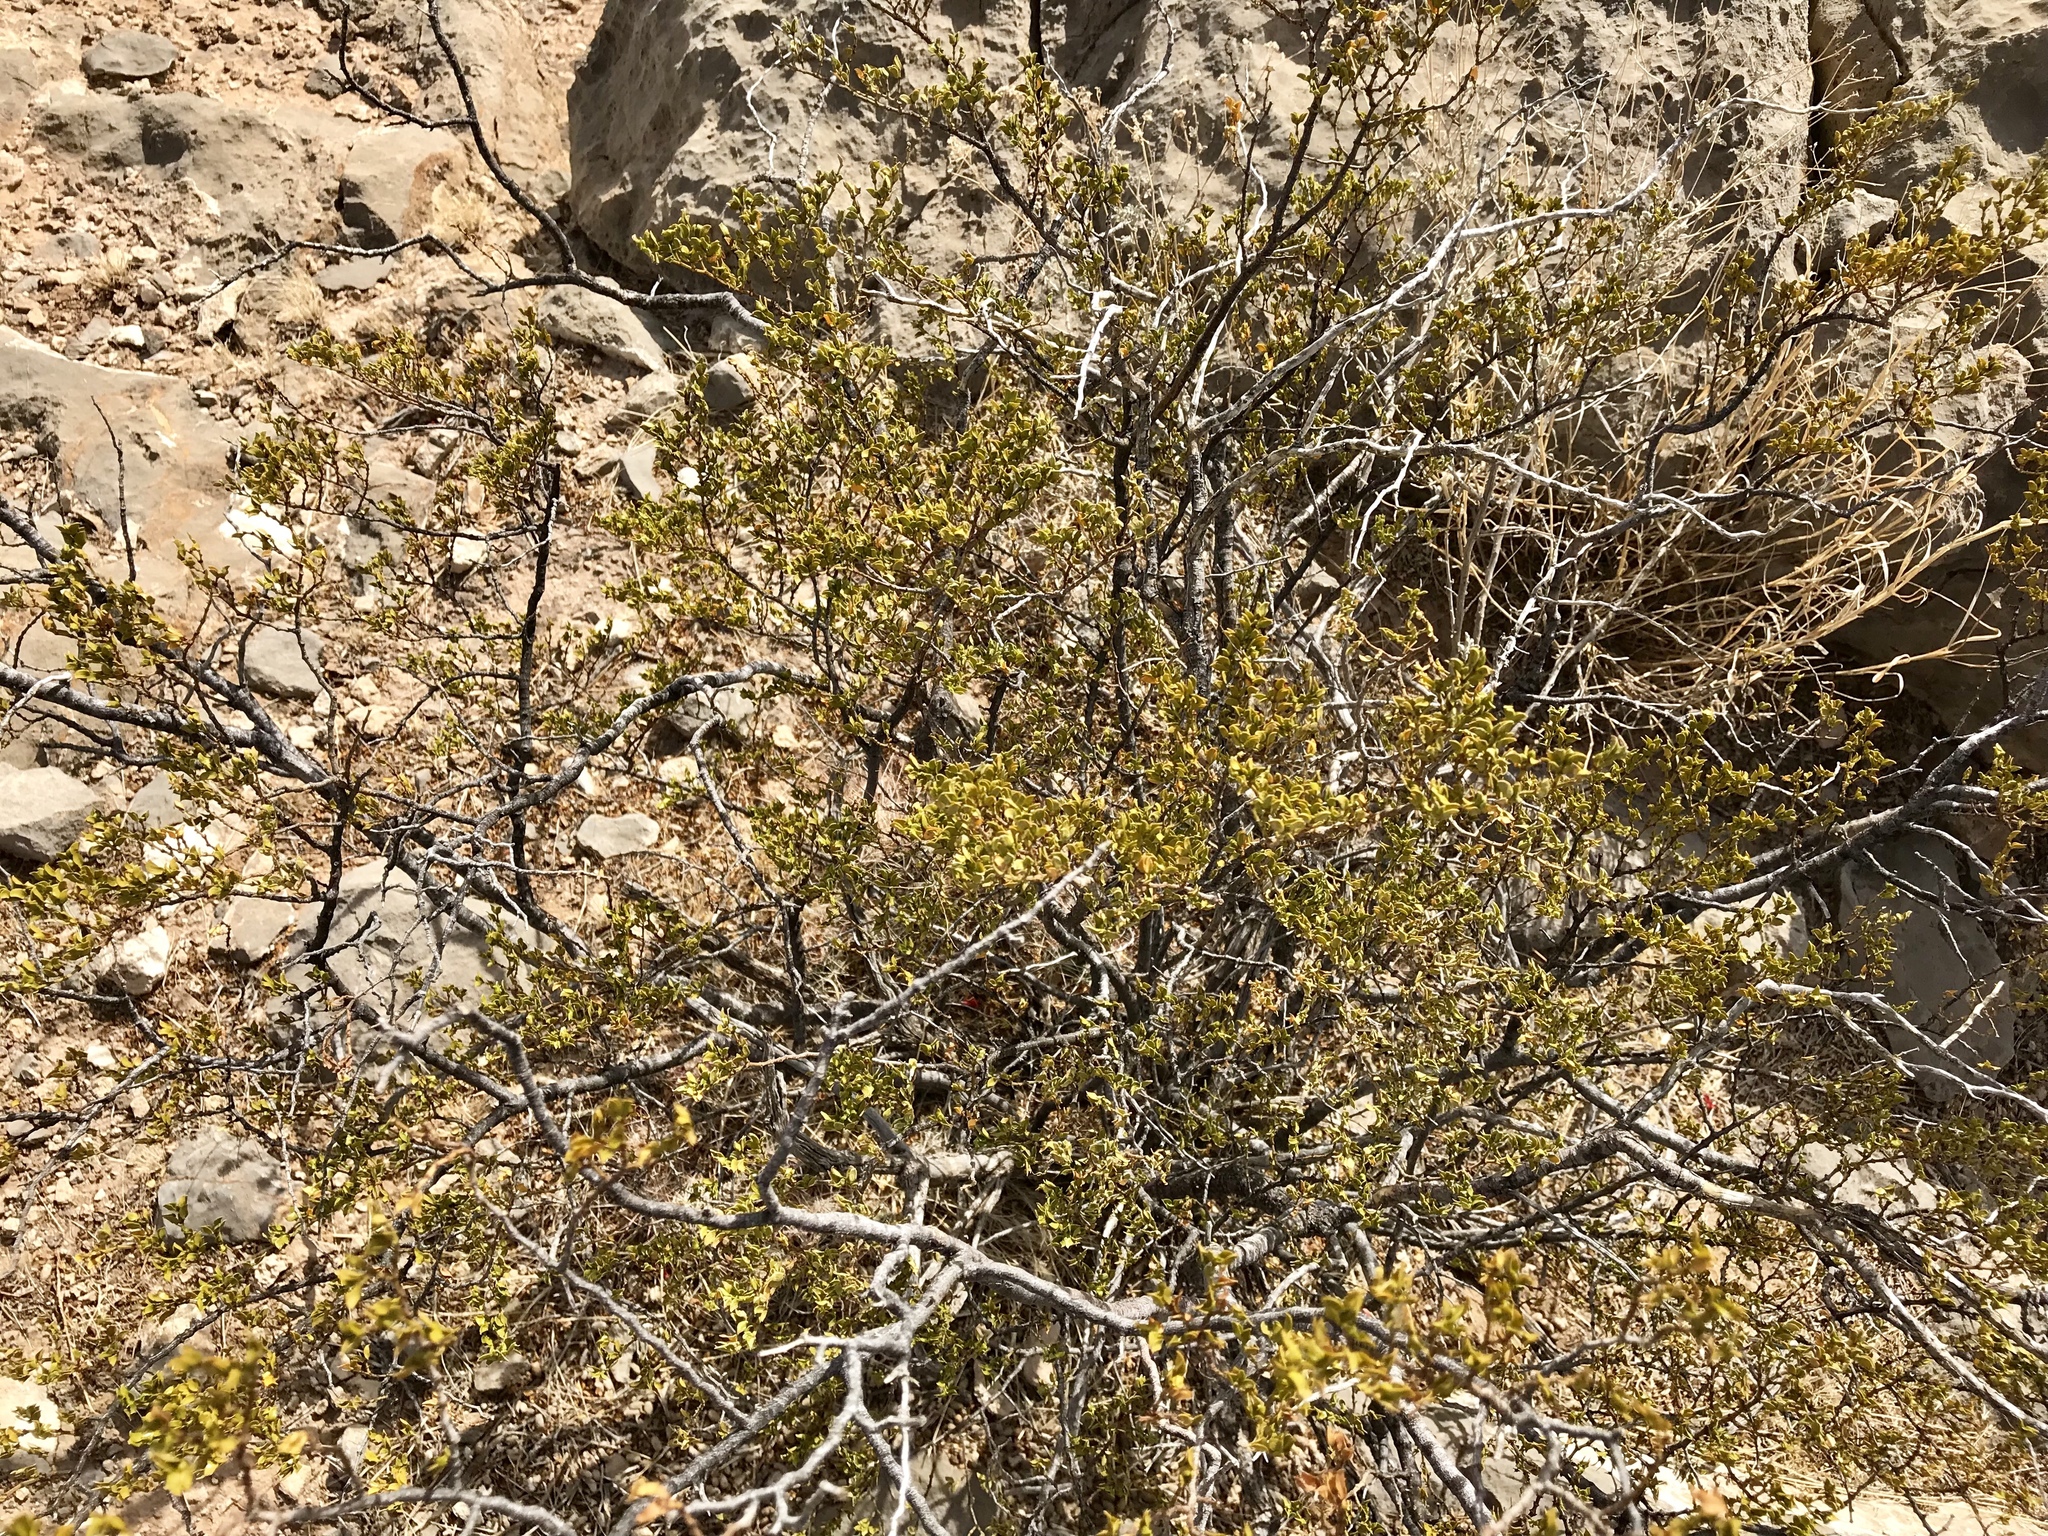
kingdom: Plantae
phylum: Tracheophyta
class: Magnoliopsida
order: Zygophyllales
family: Zygophyllaceae
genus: Larrea
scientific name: Larrea tridentata
